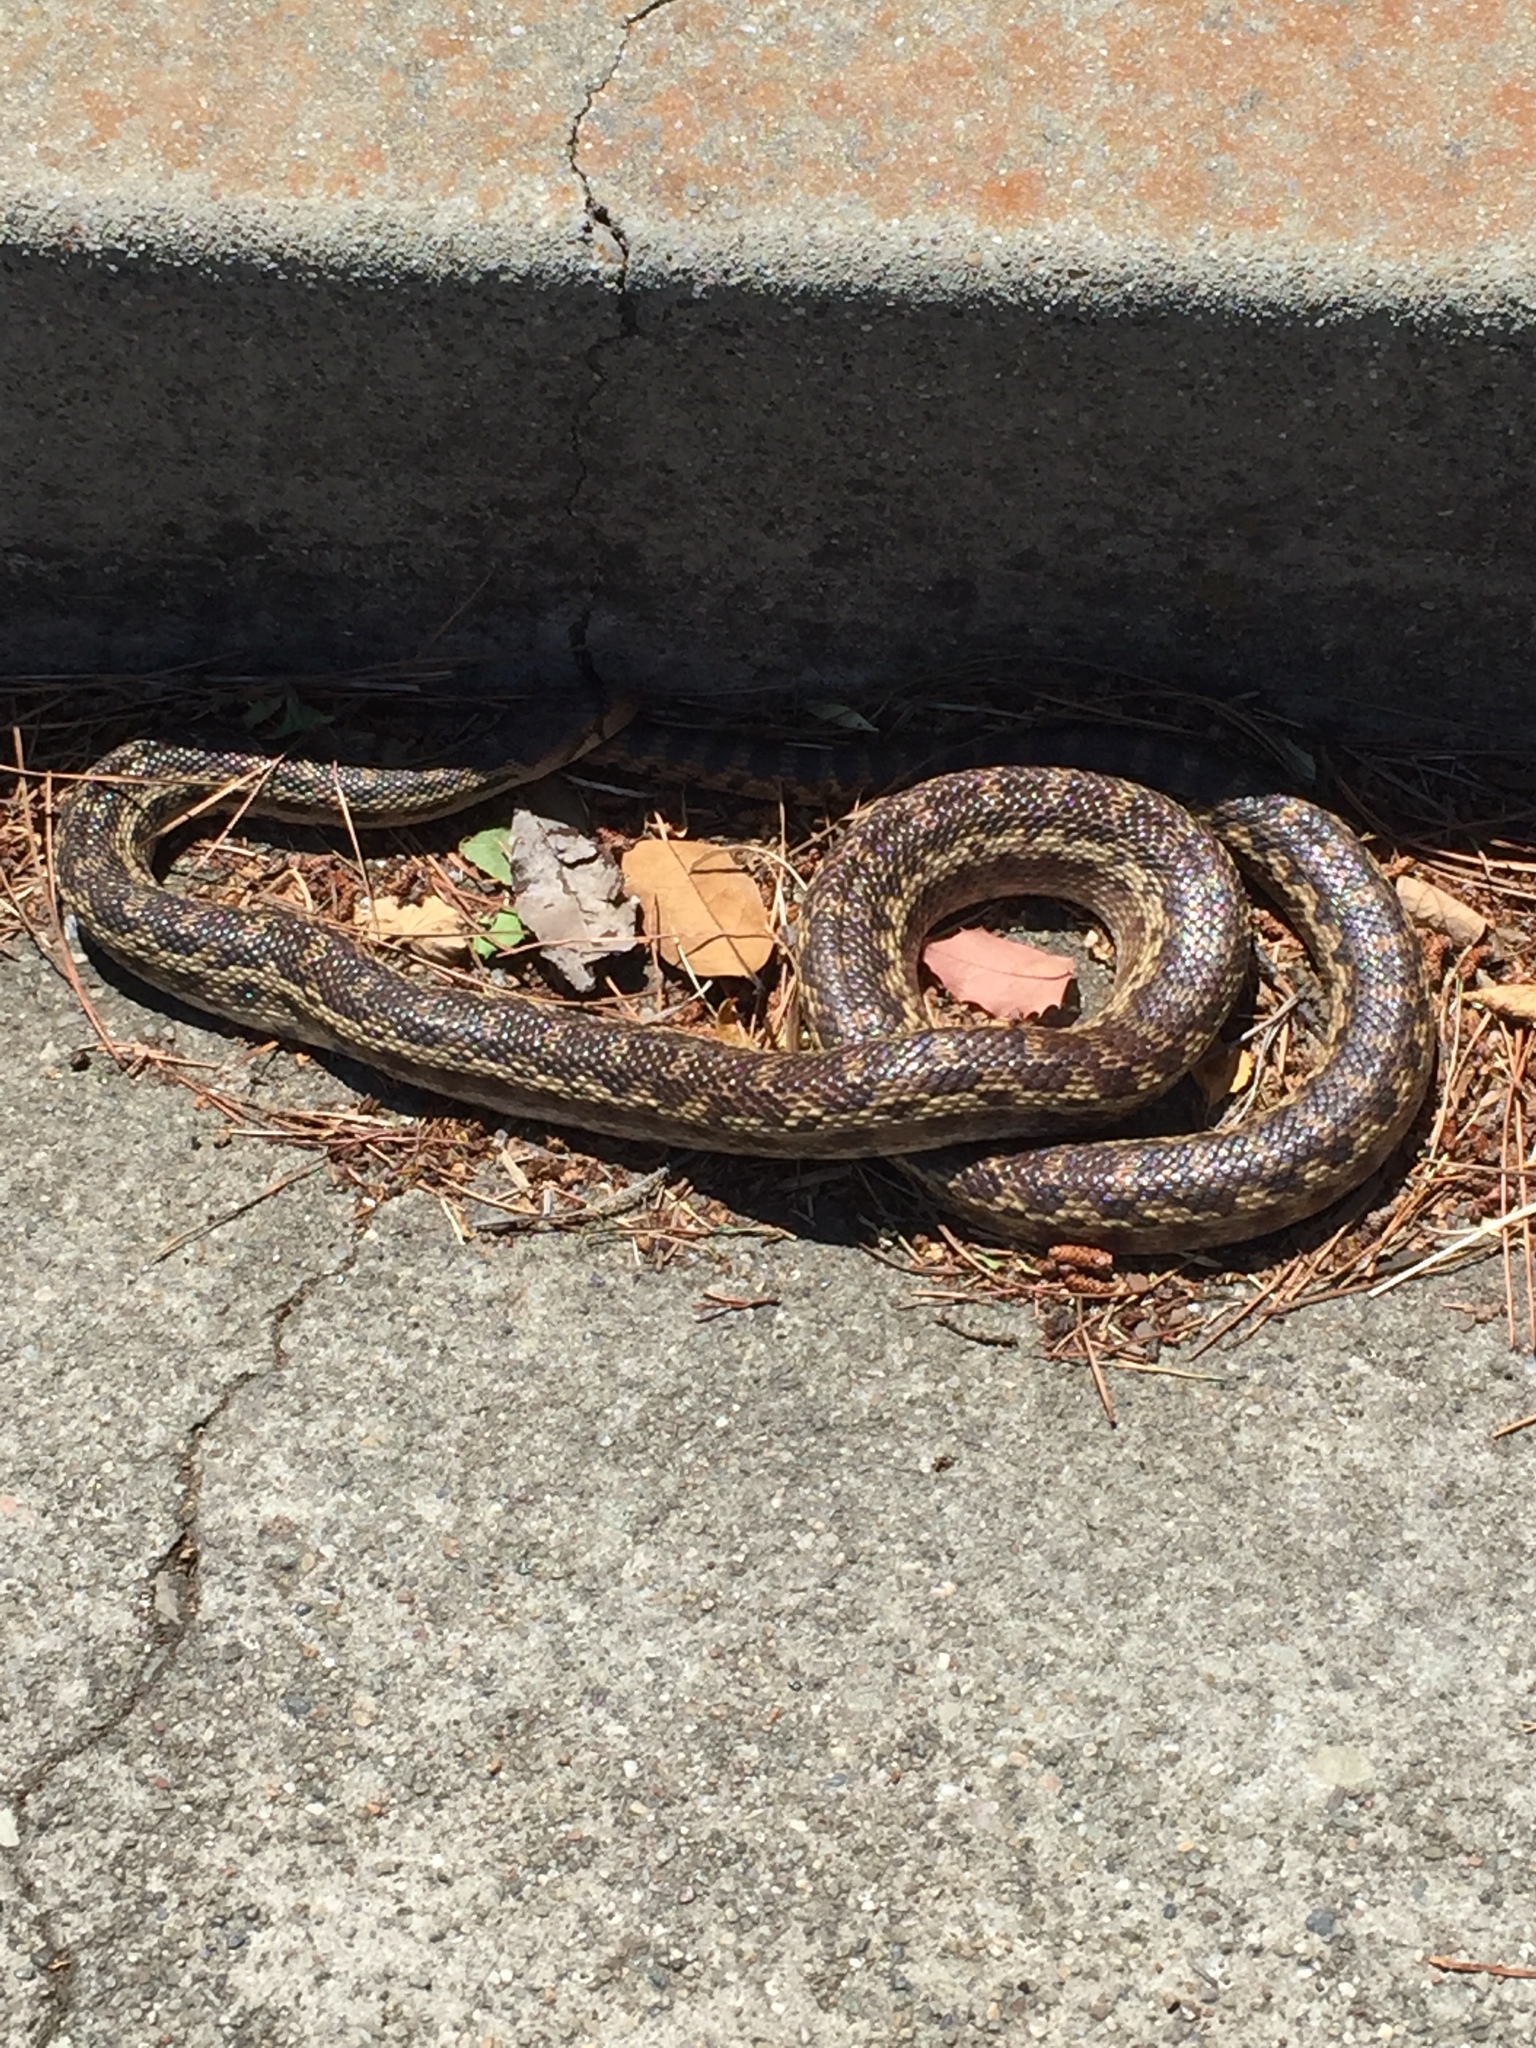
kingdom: Animalia
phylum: Chordata
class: Squamata
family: Colubridae
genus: Pituophis
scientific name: Pituophis catenifer
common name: Gopher snake
